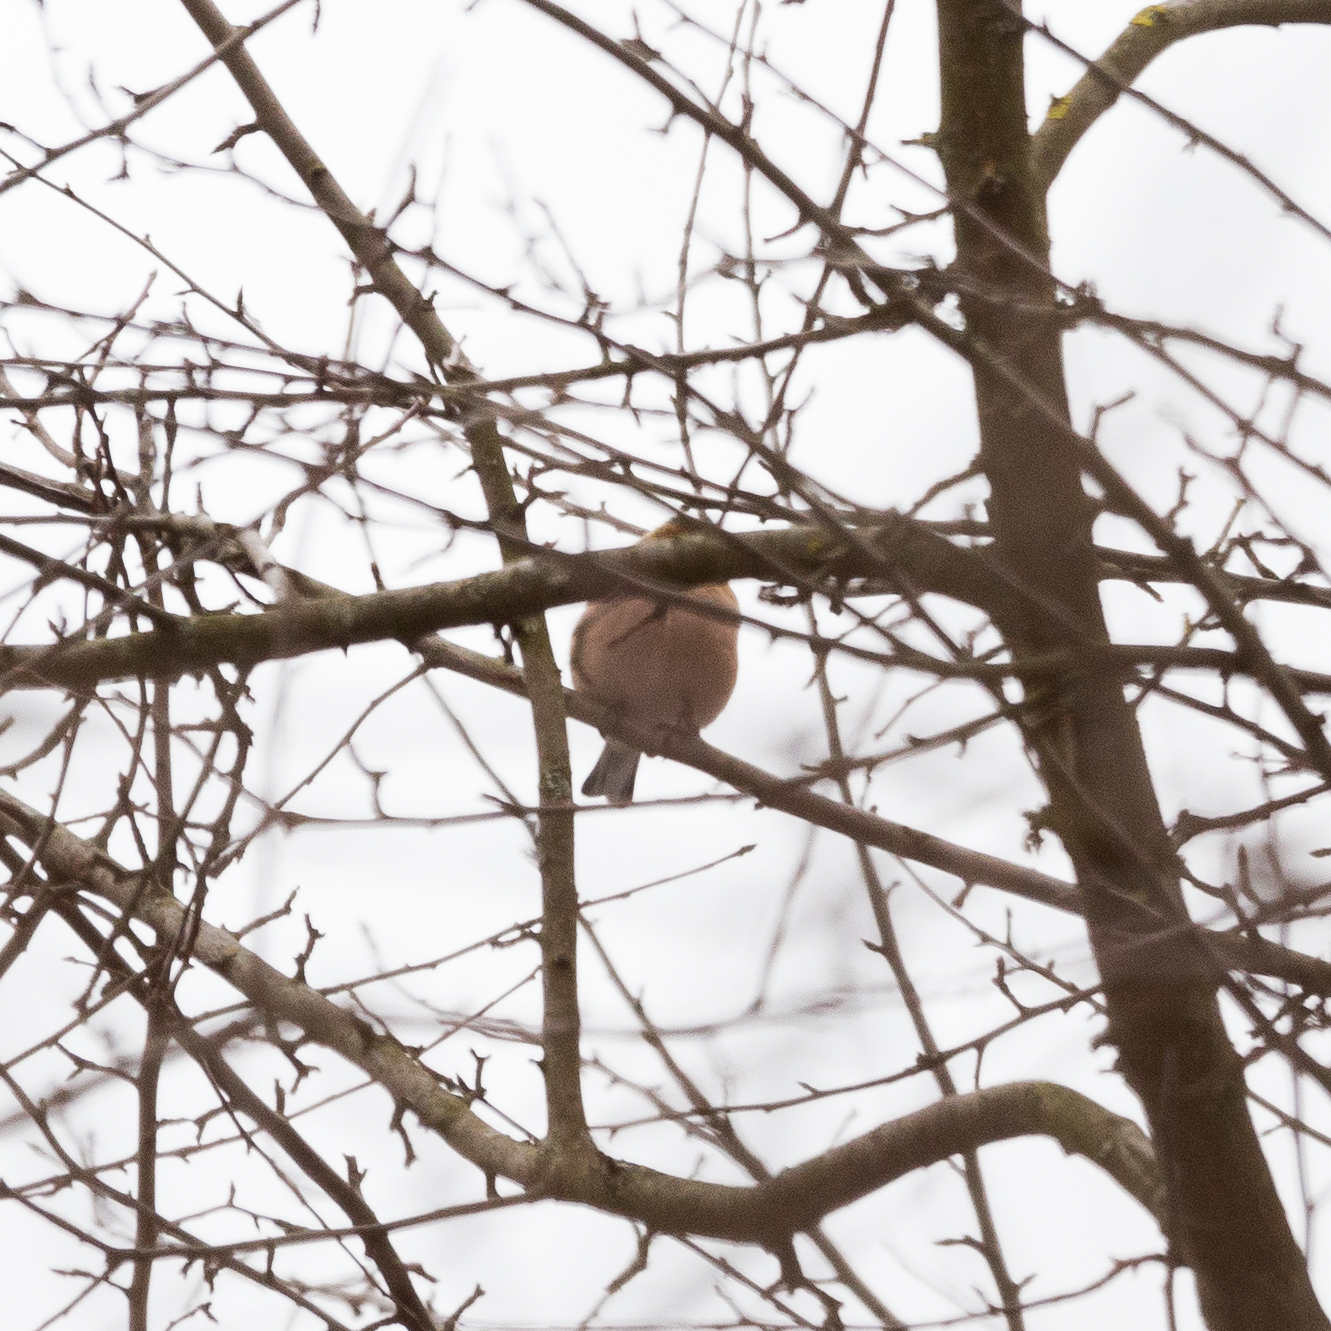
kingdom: Animalia
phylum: Chordata
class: Aves
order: Passeriformes
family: Fringillidae
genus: Fringilla
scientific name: Fringilla coelebs
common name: Common chaffinch
